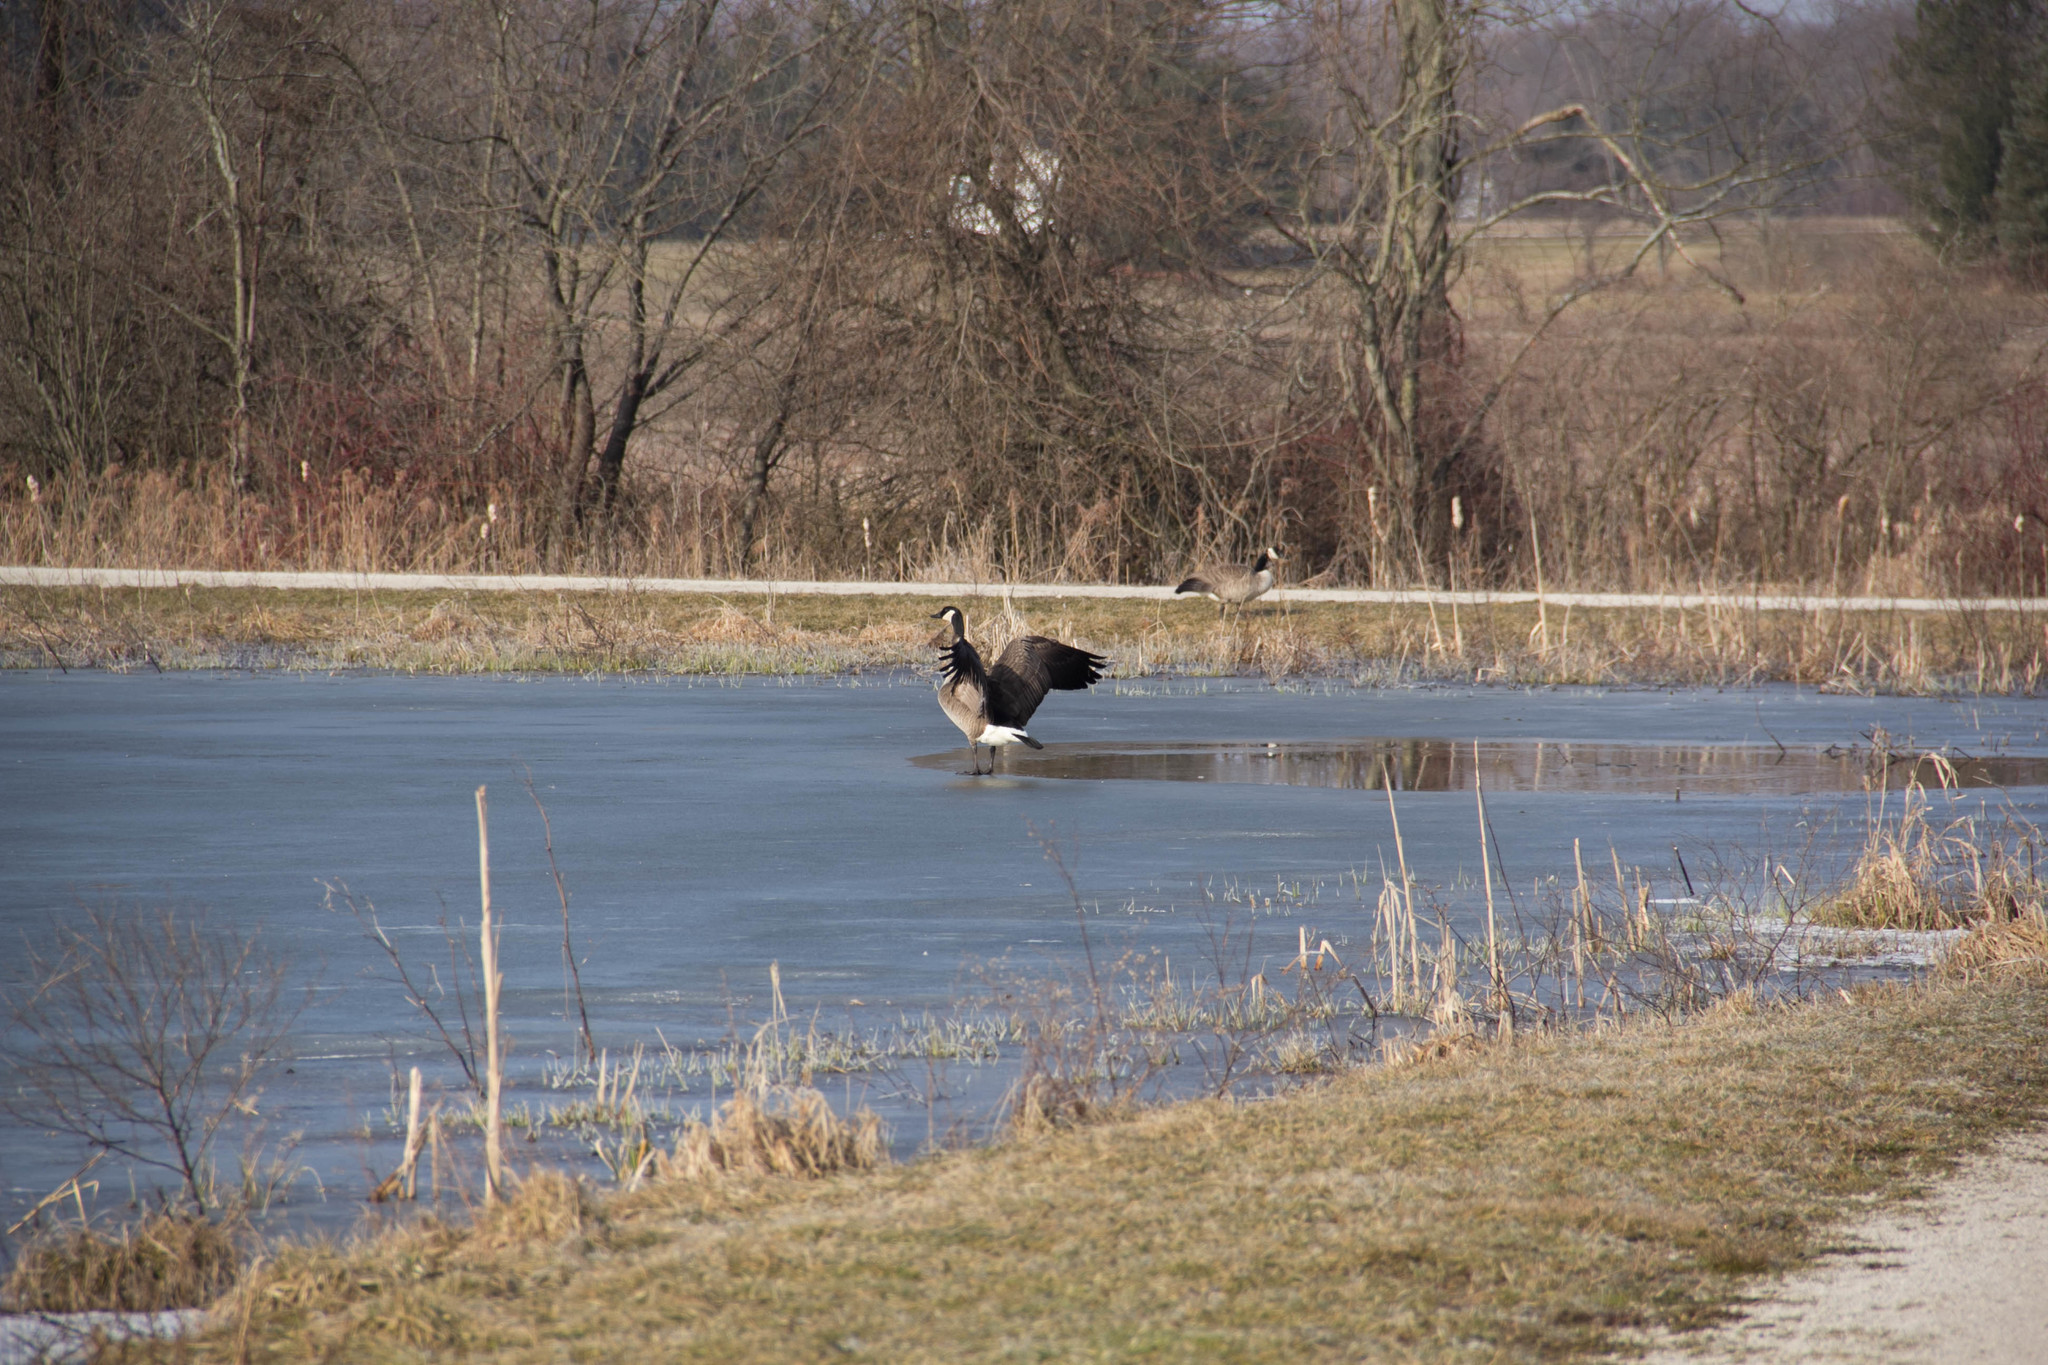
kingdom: Animalia
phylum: Chordata
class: Aves
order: Anseriformes
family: Anatidae
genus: Branta
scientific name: Branta canadensis
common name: Canada goose
